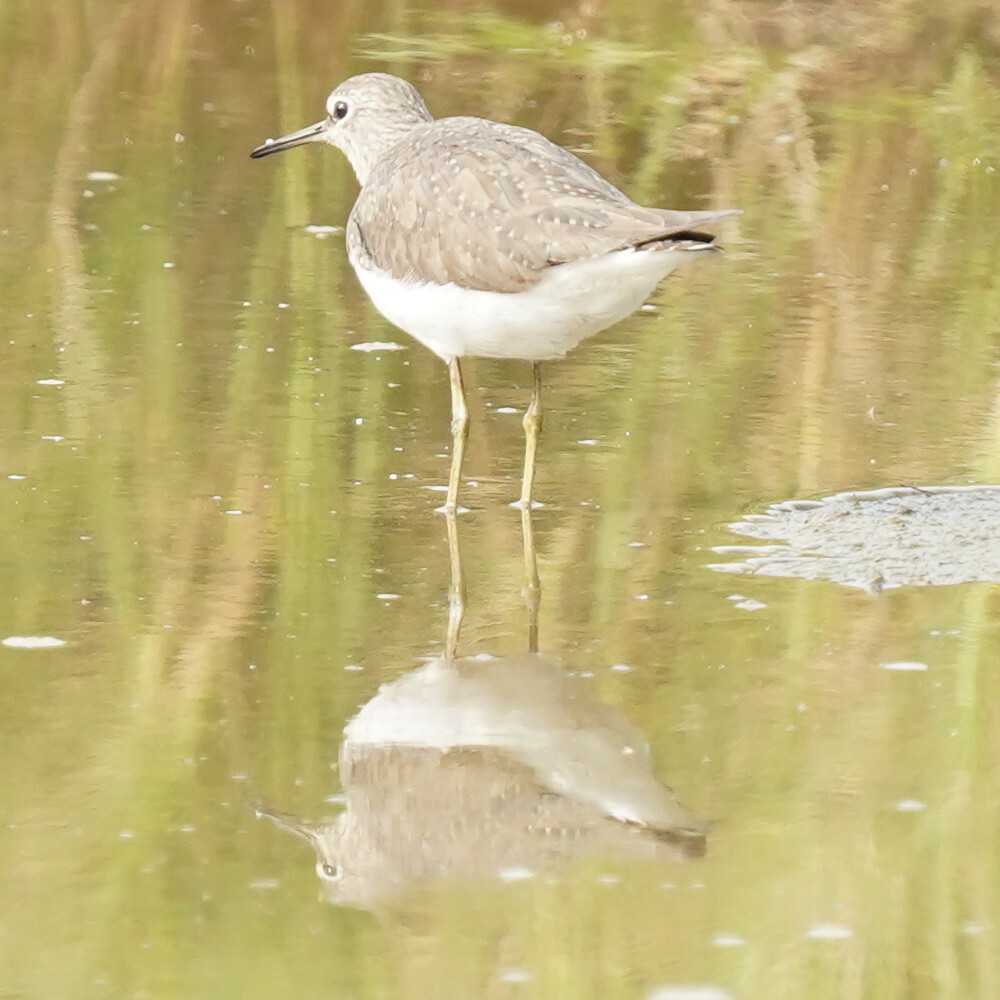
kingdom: Animalia
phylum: Chordata
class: Aves
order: Charadriiformes
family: Scolopacidae
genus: Tringa
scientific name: Tringa ochropus
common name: Green sandpiper
